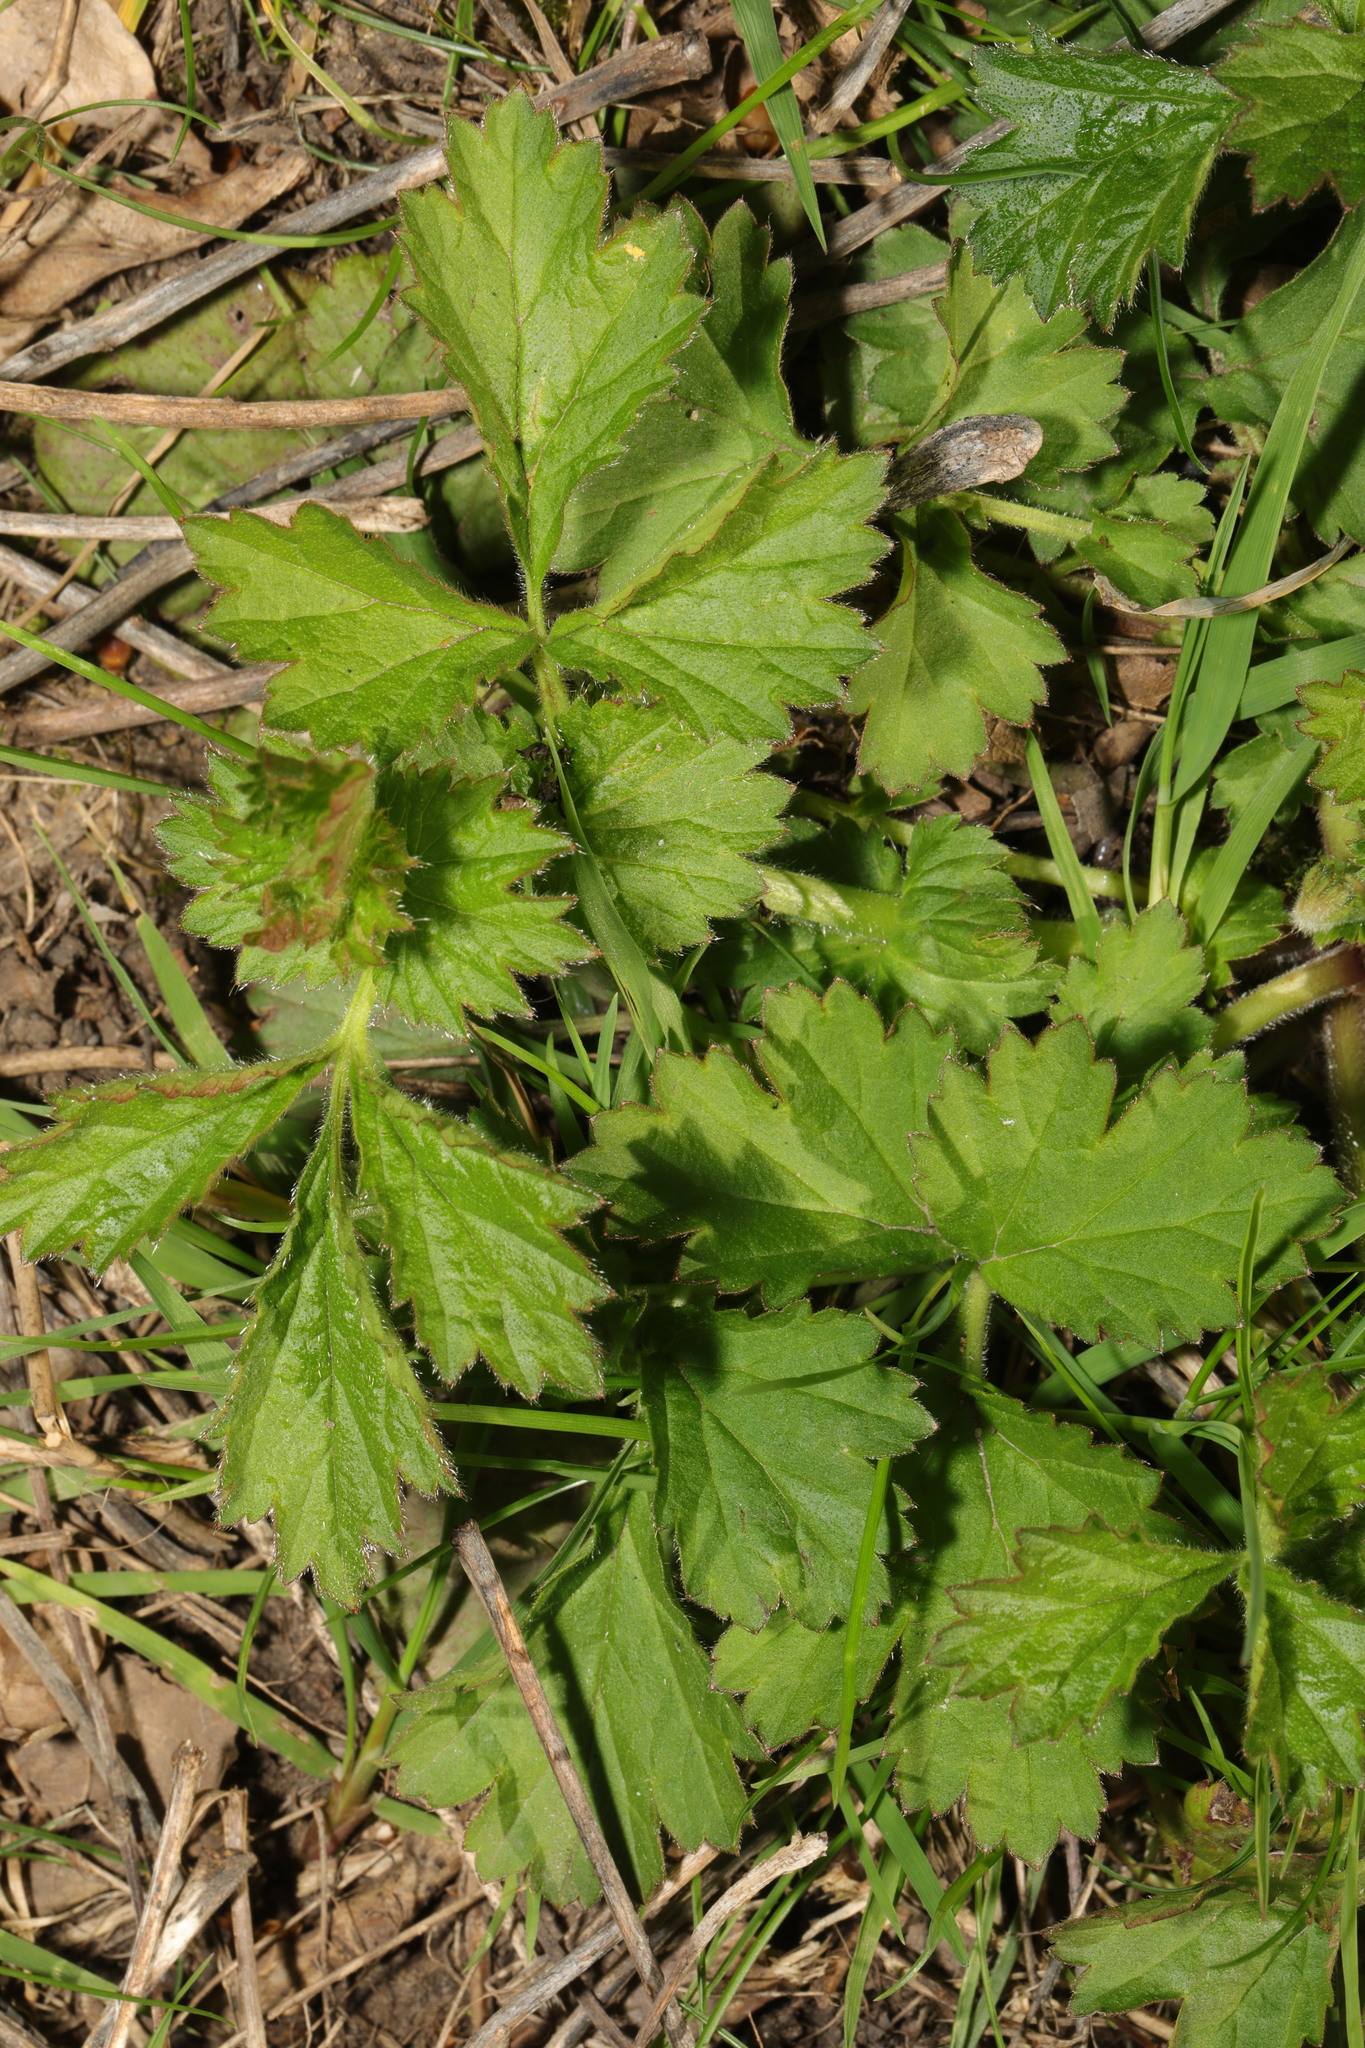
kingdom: Plantae
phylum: Tracheophyta
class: Magnoliopsida
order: Rosales
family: Rosaceae
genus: Geum
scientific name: Geum urbanum
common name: Wood avens
